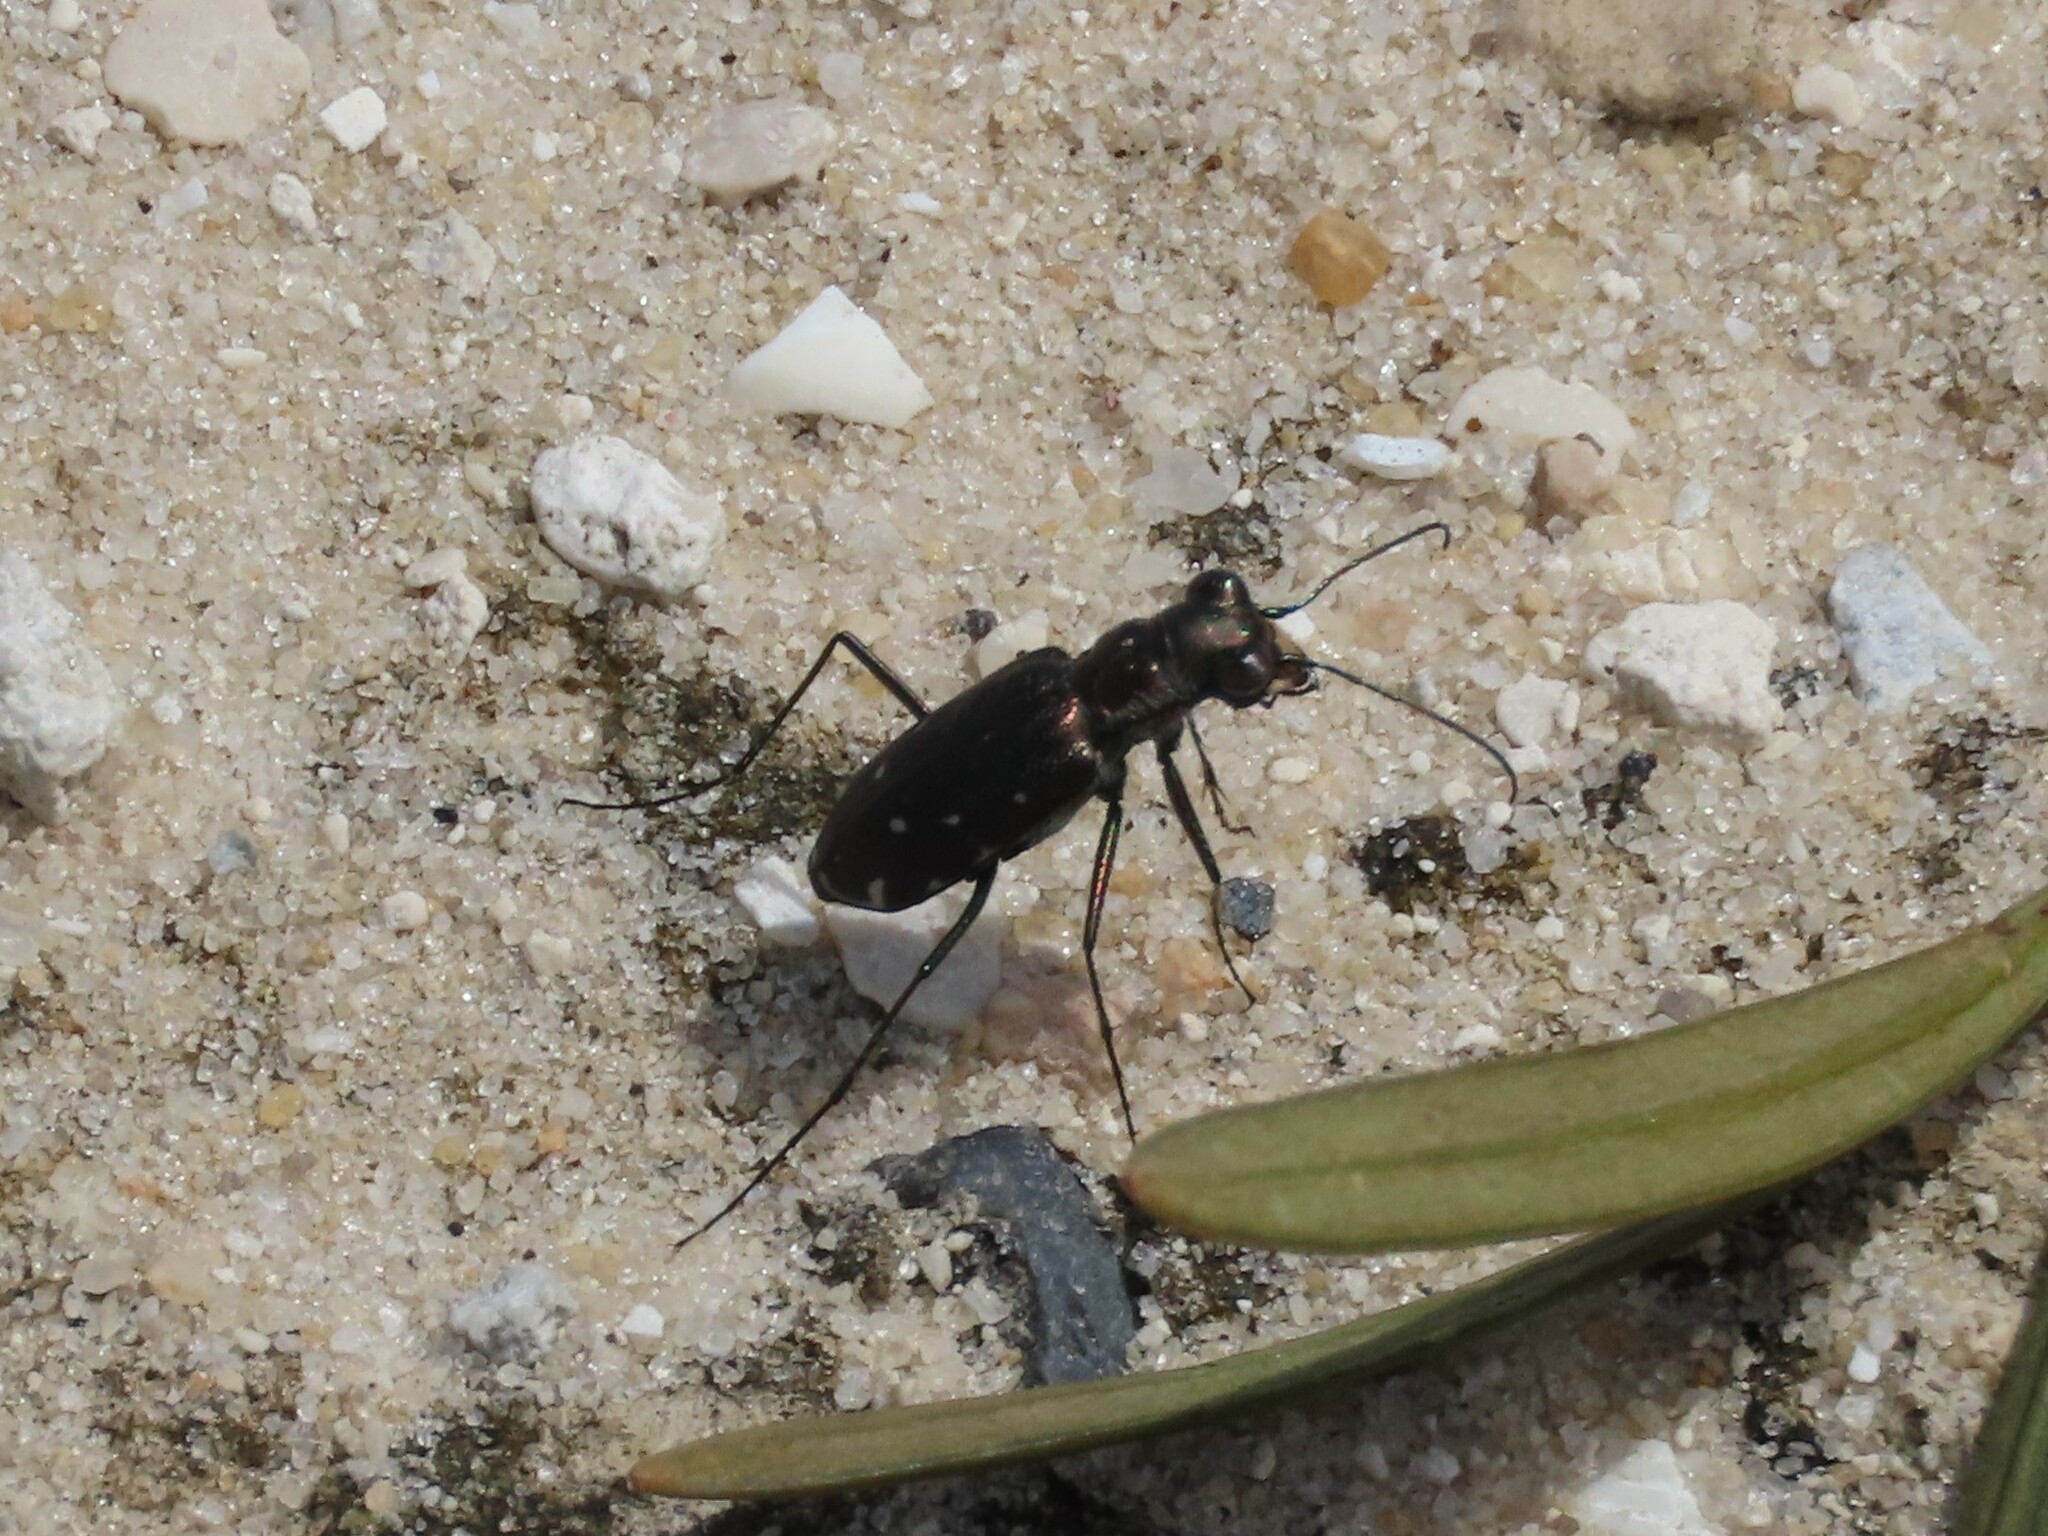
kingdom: Animalia
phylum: Arthropoda
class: Insecta
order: Coleoptera
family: Carabidae
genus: Cicindela
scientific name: Cicindela punctulata
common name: Punctured tiger beetle
